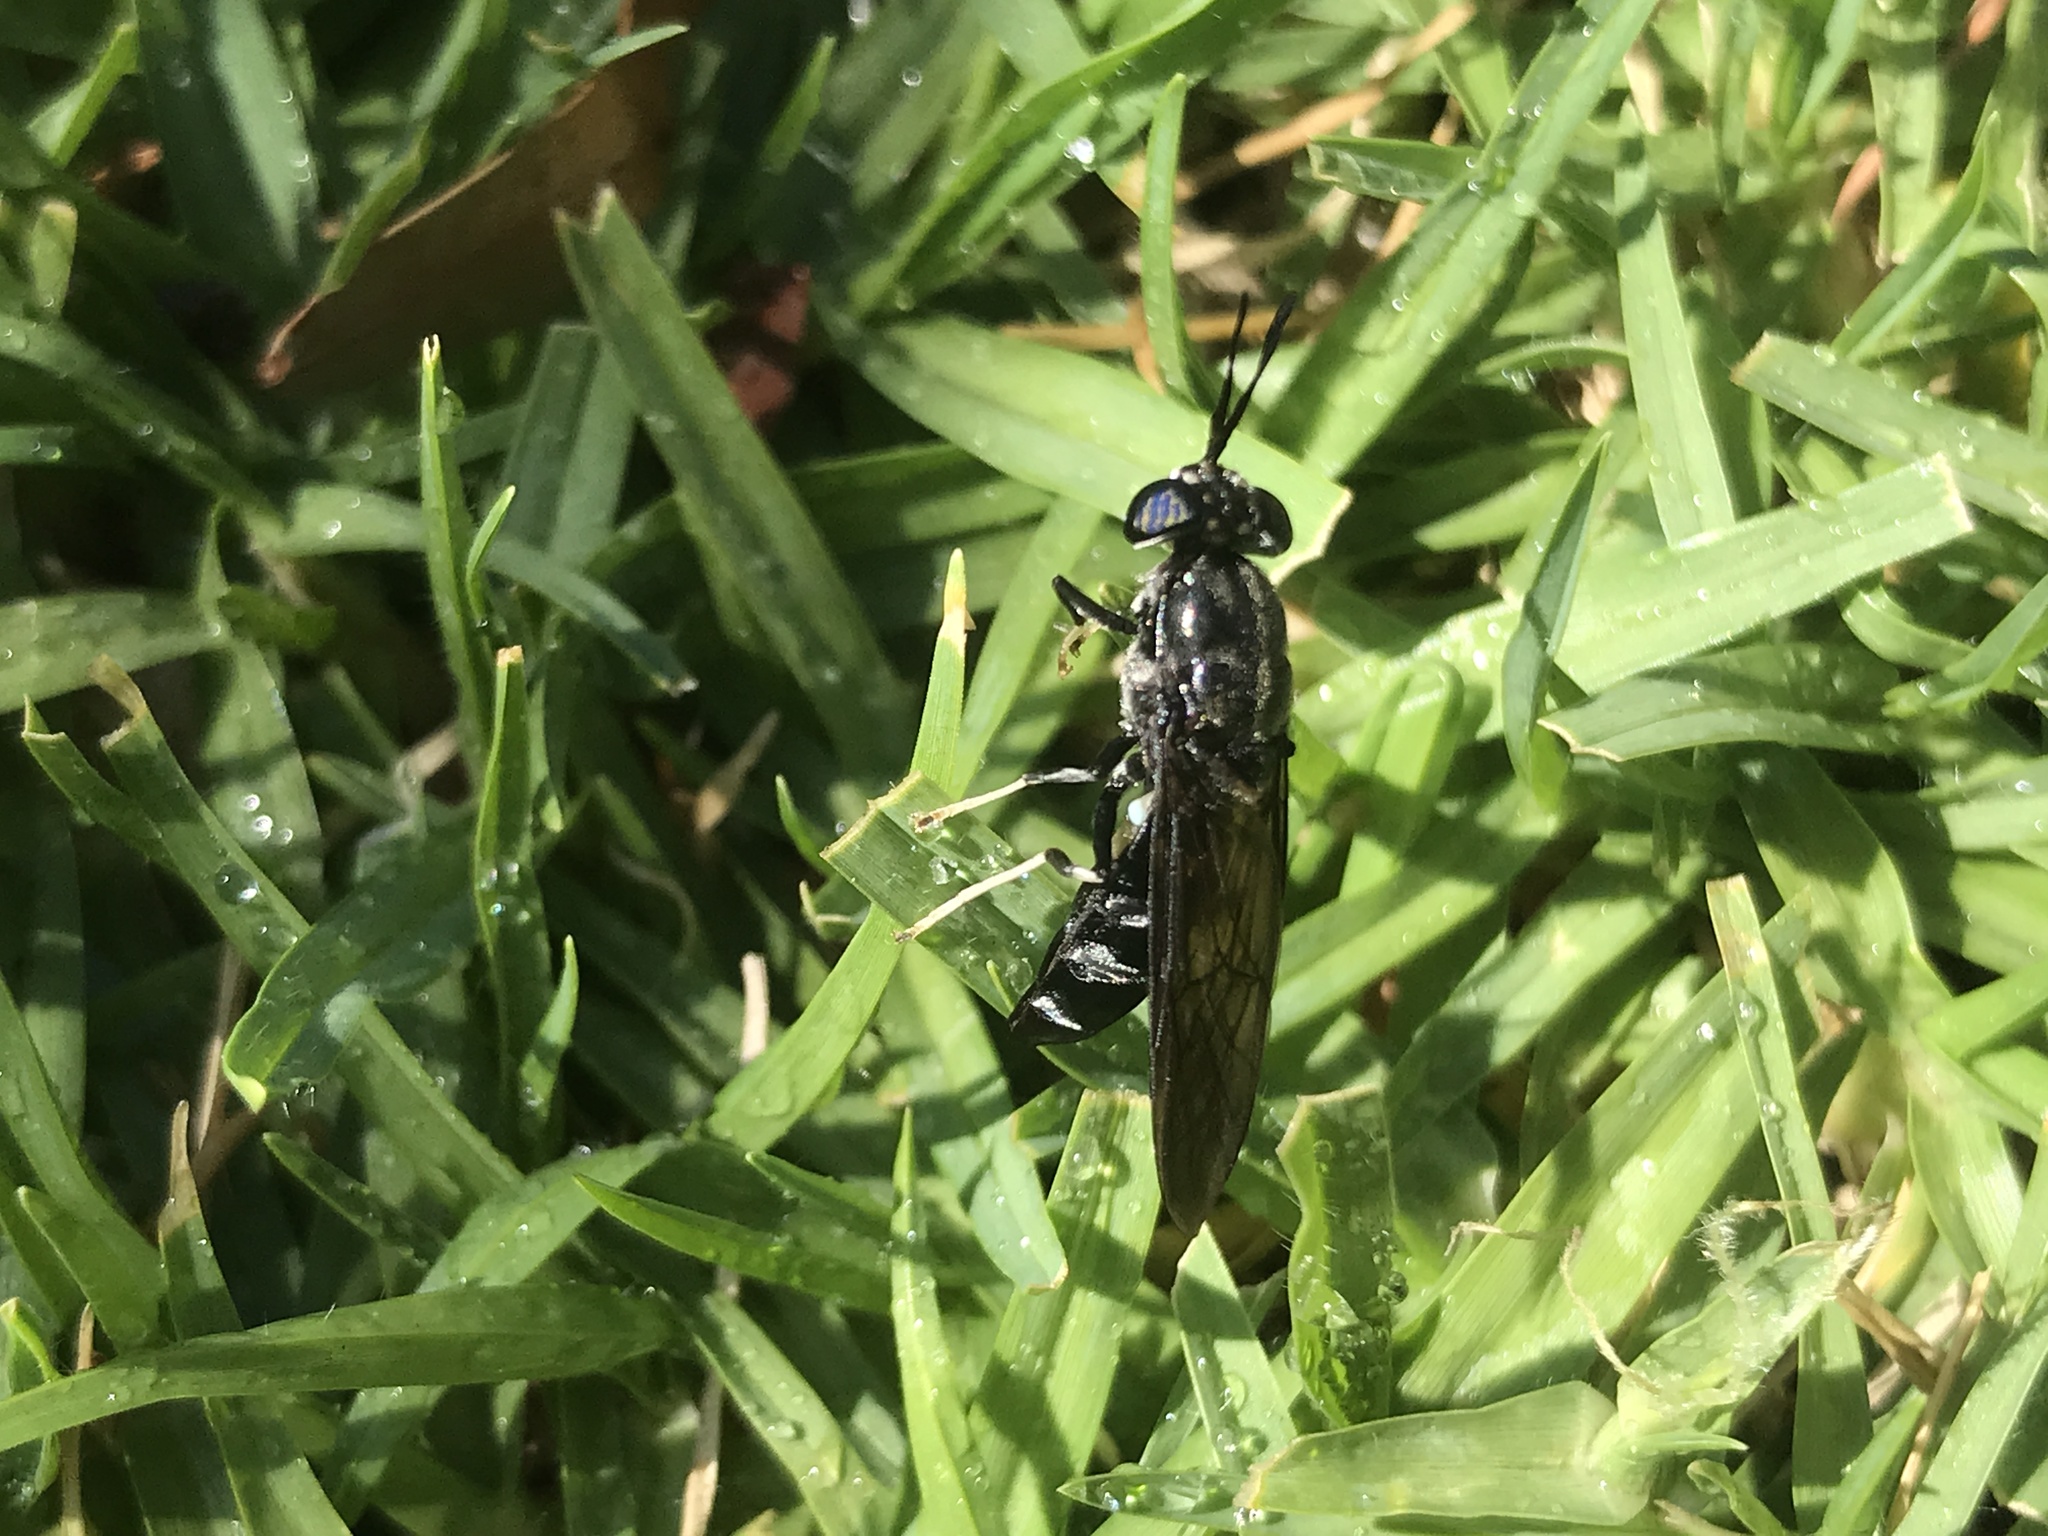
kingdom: Animalia
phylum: Arthropoda
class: Insecta
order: Diptera
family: Stratiomyidae
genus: Hermetia
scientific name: Hermetia illucens
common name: Black soldier fly
